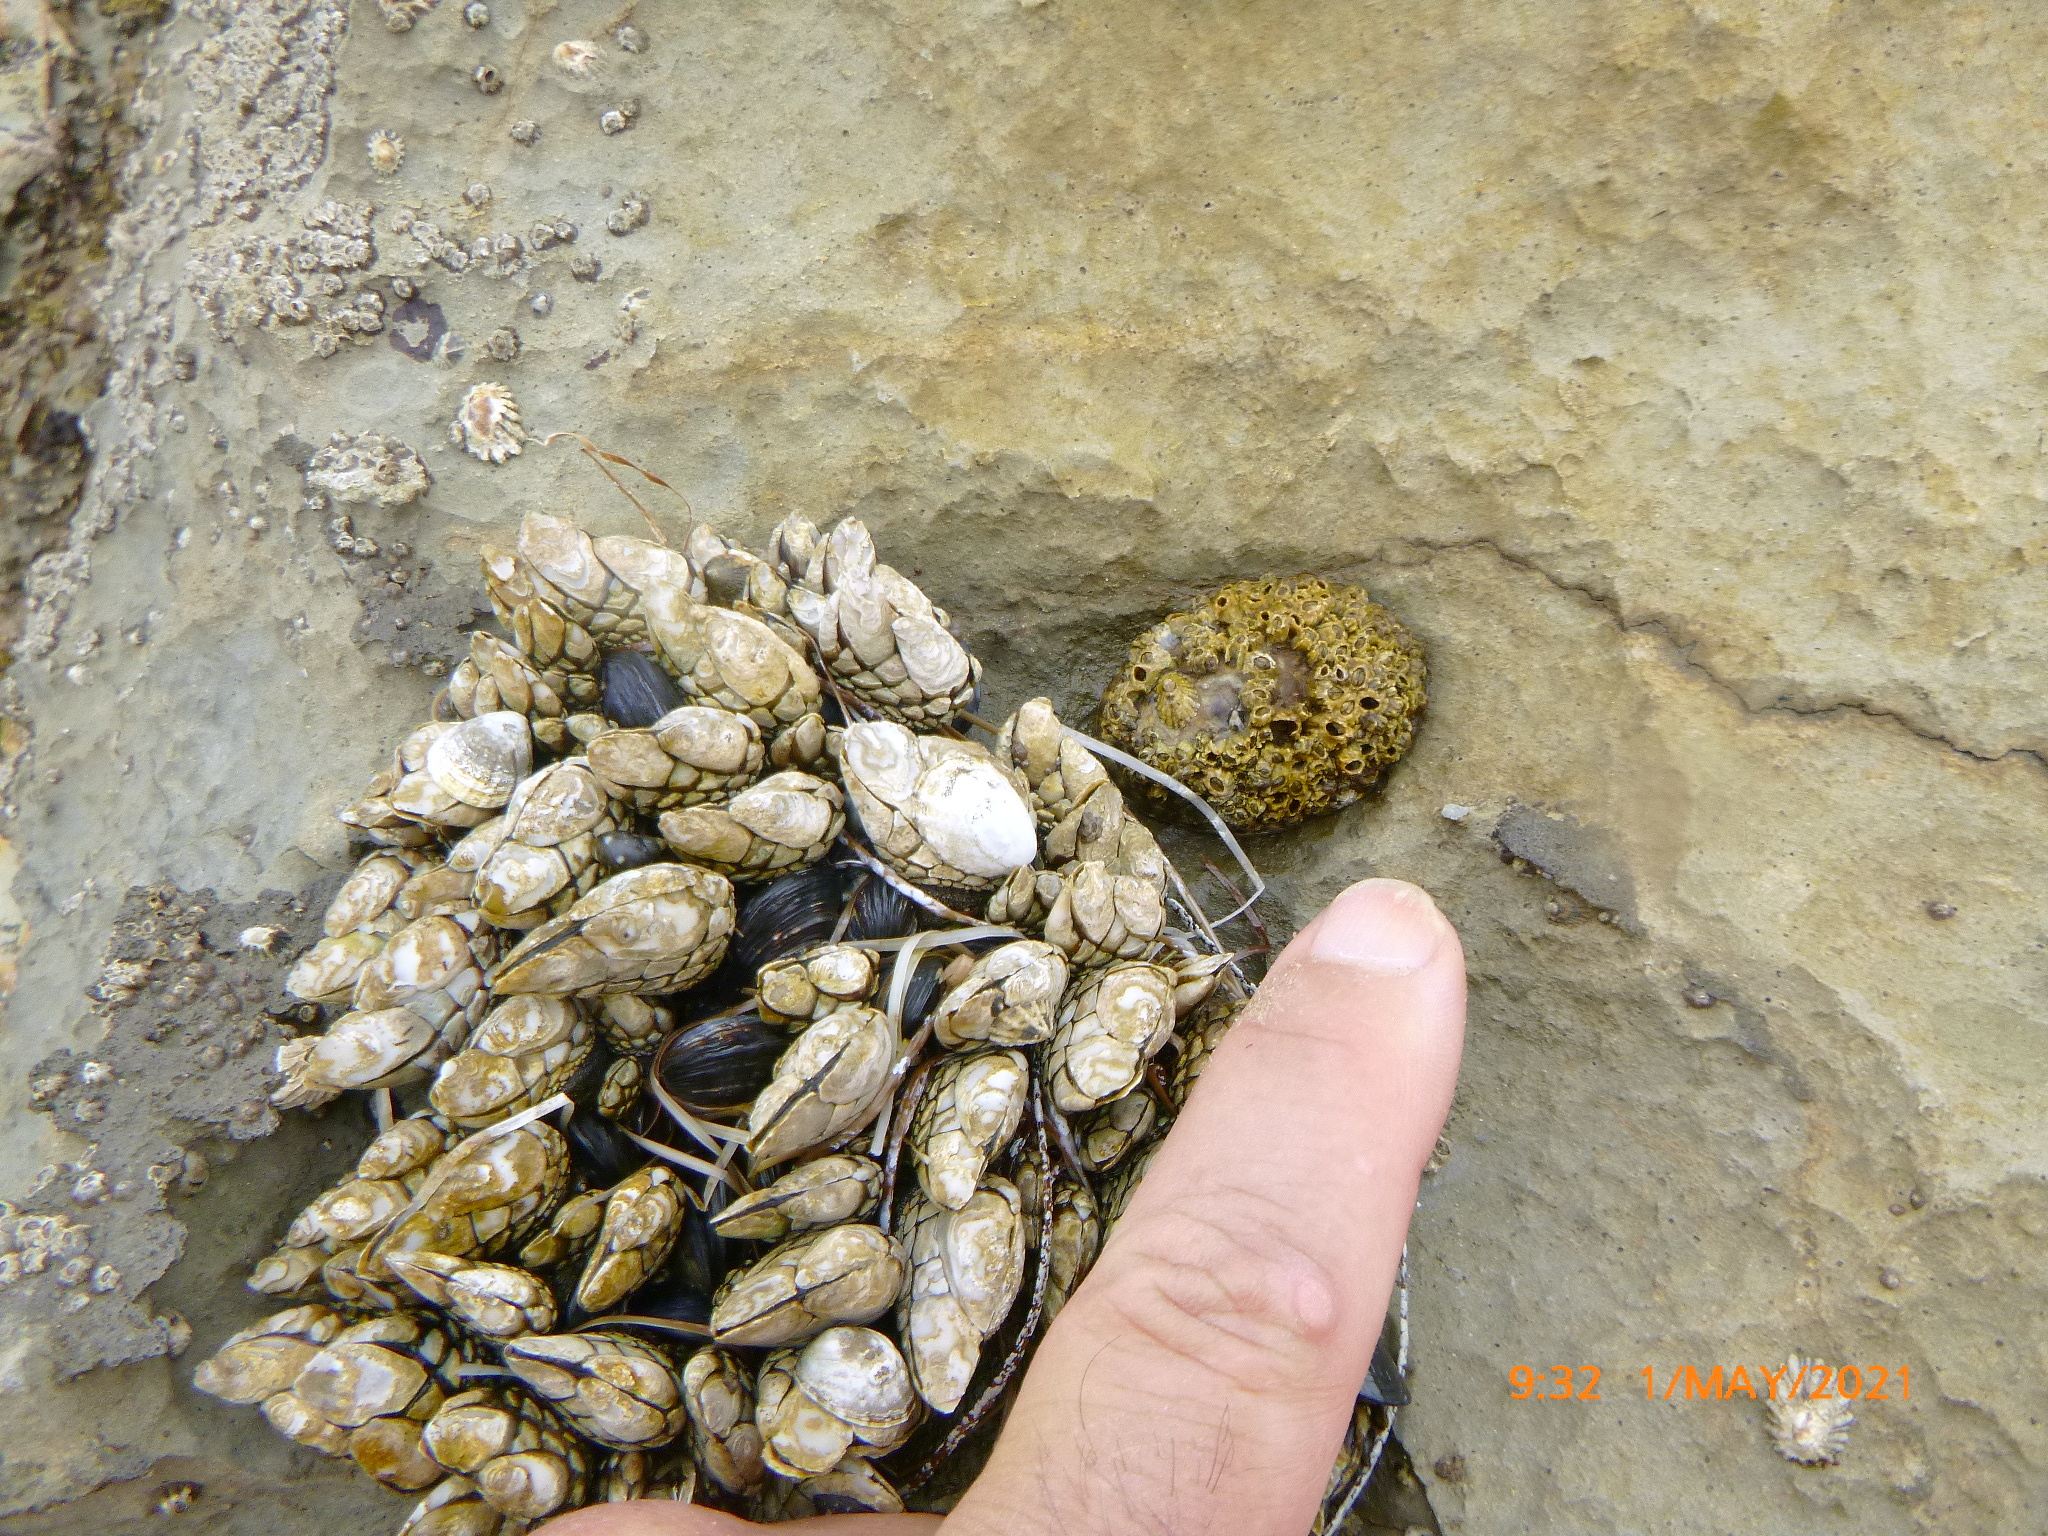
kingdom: Animalia
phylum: Mollusca
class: Gastropoda
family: Lottiidae
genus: Lottia
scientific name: Lottia gigantea
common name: Owl limpet
